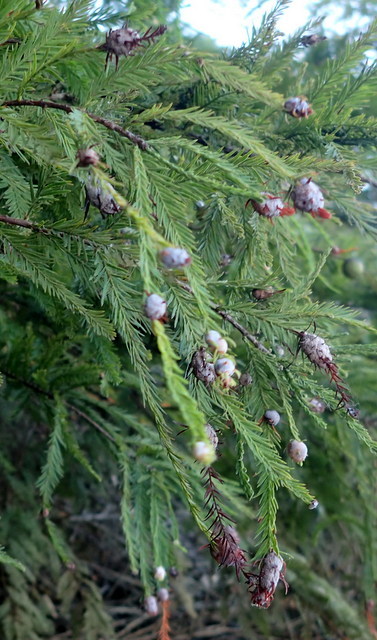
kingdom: Animalia
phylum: Arthropoda
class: Insecta
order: Diptera
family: Cecidomyiidae
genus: Taxodiomyia
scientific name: Taxodiomyia cupressiananassa
